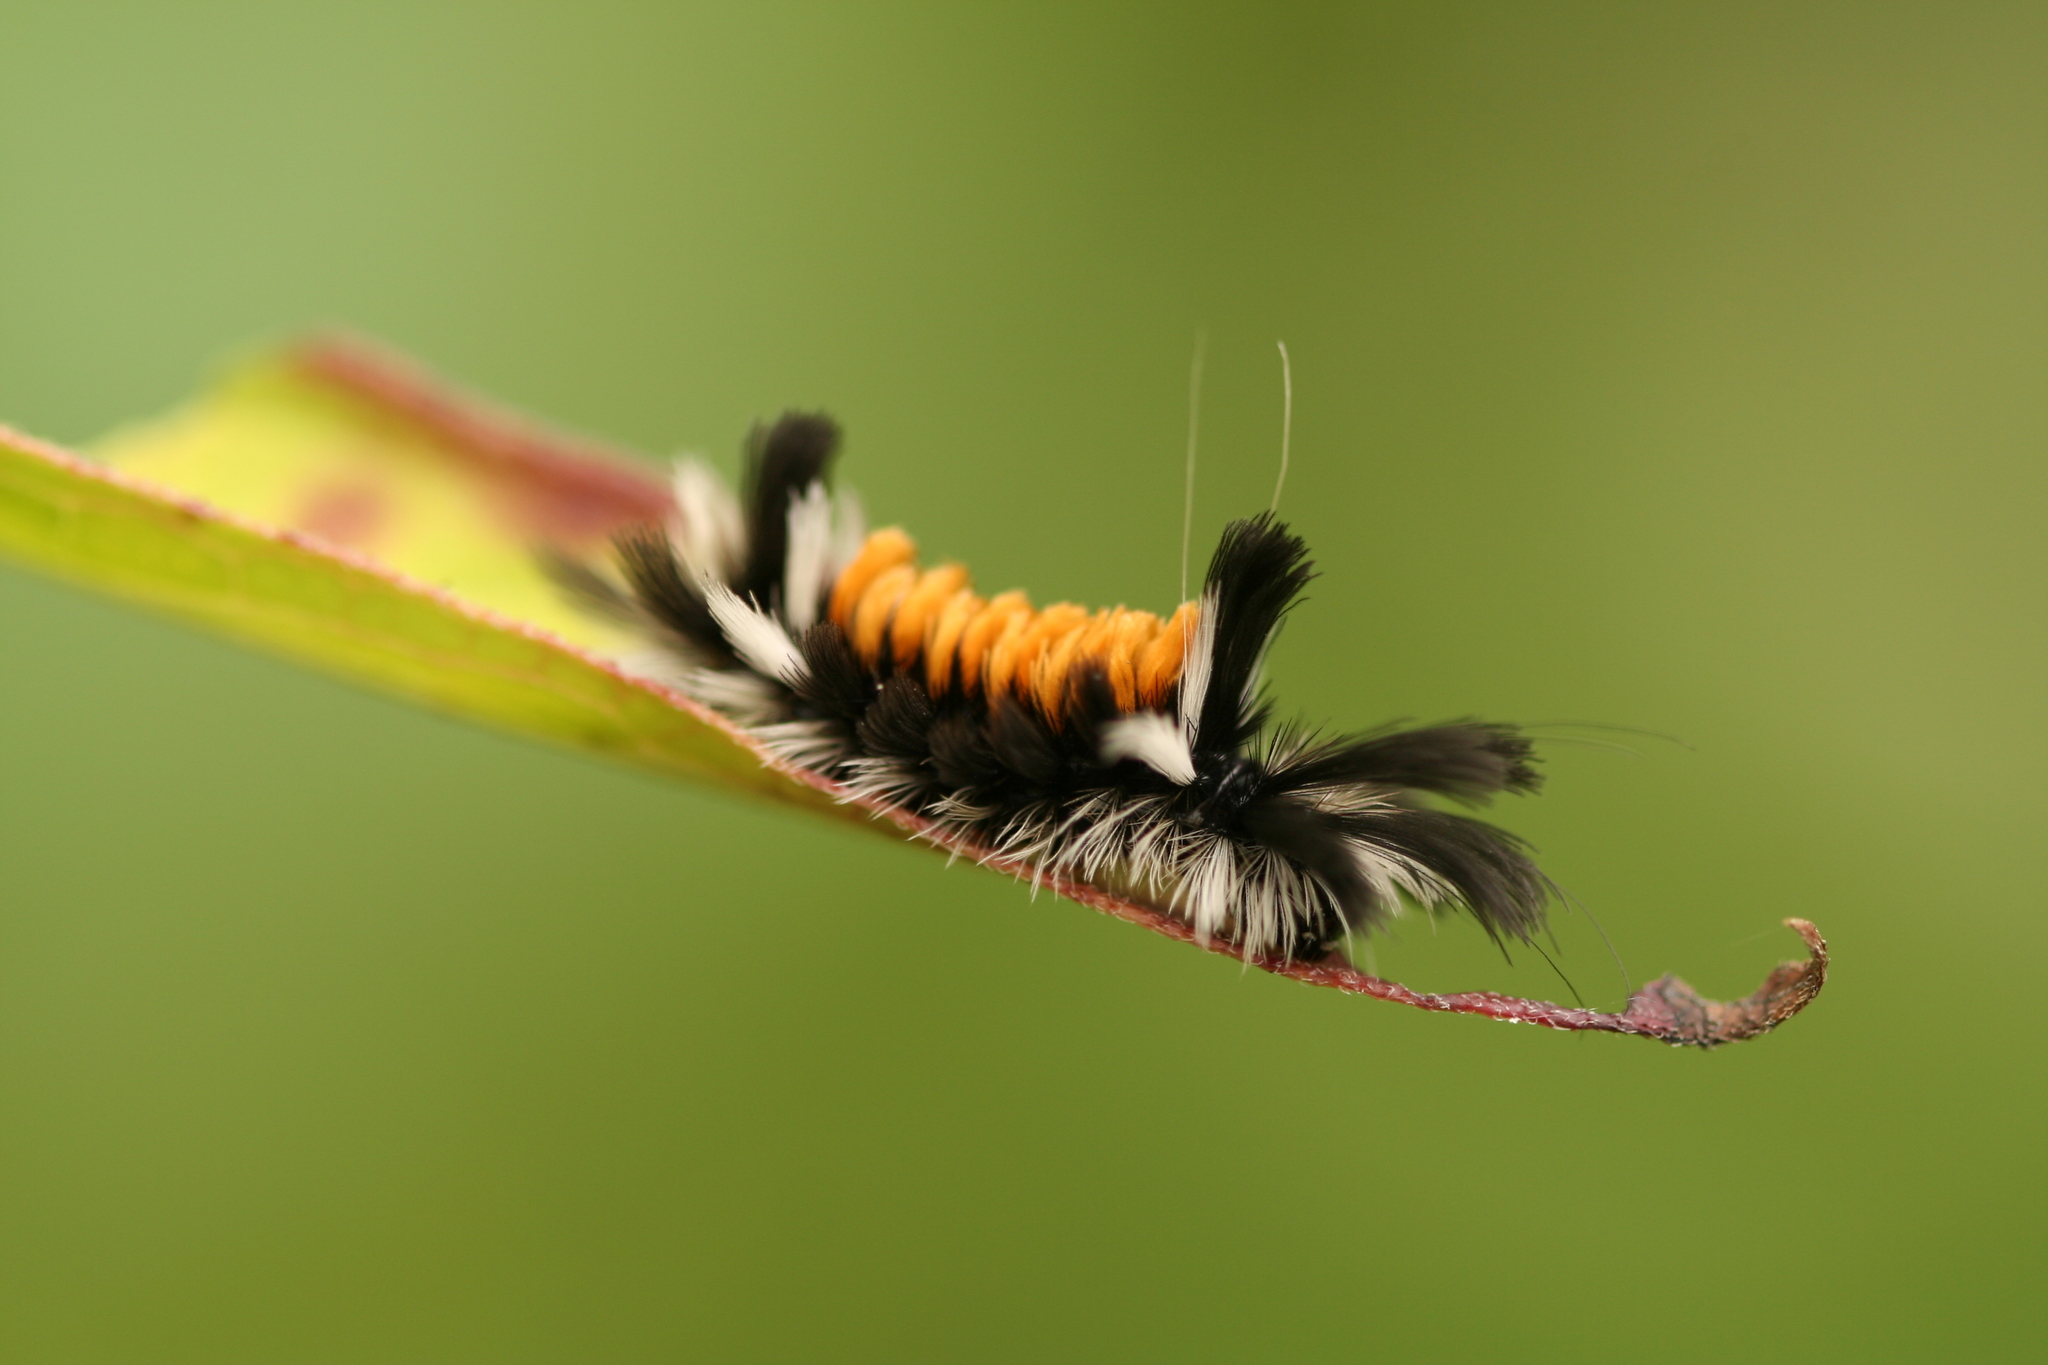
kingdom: Animalia
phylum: Arthropoda
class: Insecta
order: Lepidoptera
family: Erebidae
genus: Euchaetes
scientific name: Euchaetes egle
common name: Milkweed tussock moth
